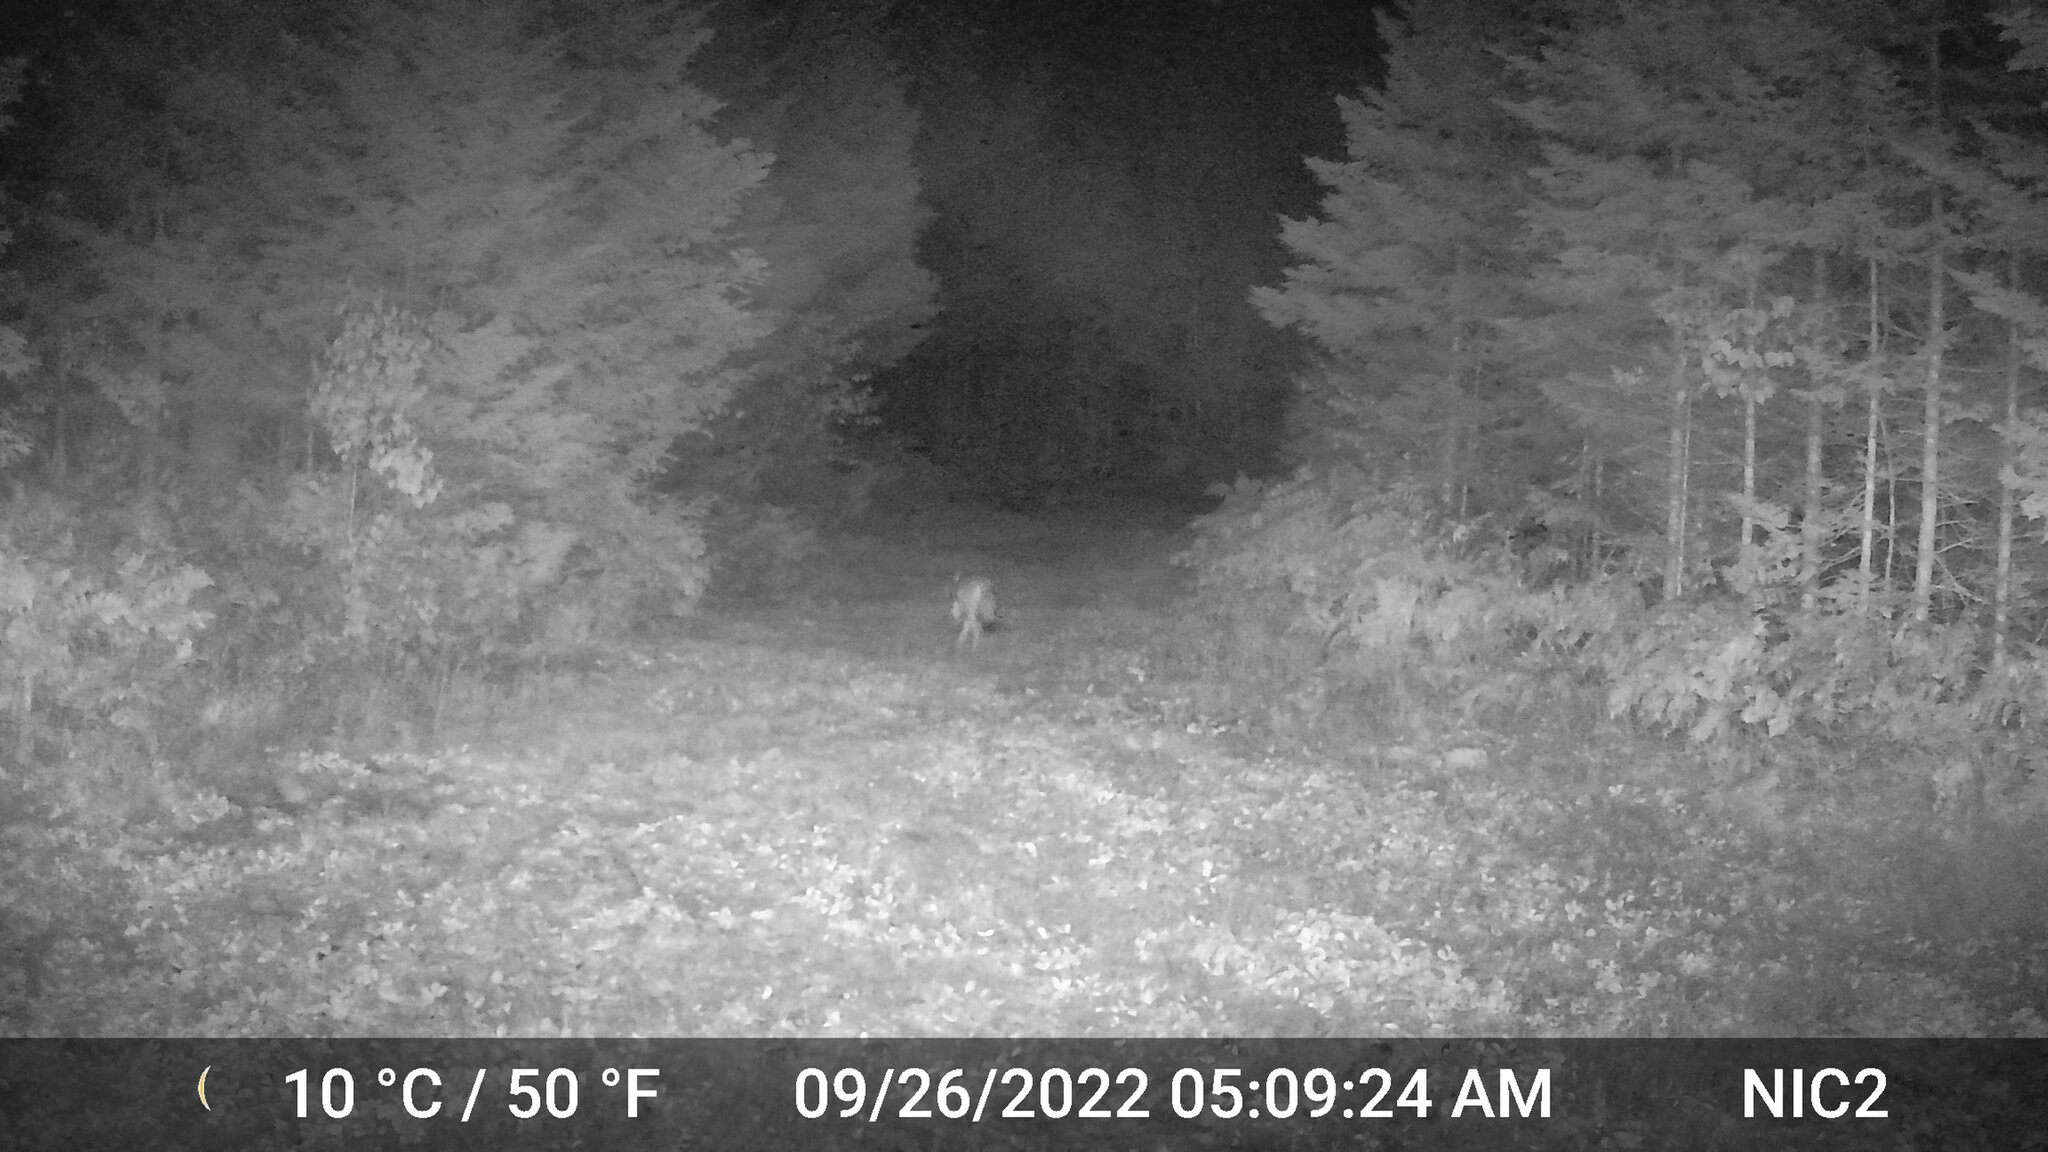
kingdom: Animalia
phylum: Chordata
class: Mammalia
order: Carnivora
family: Canidae
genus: Canis
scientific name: Canis latrans
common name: Coyote
